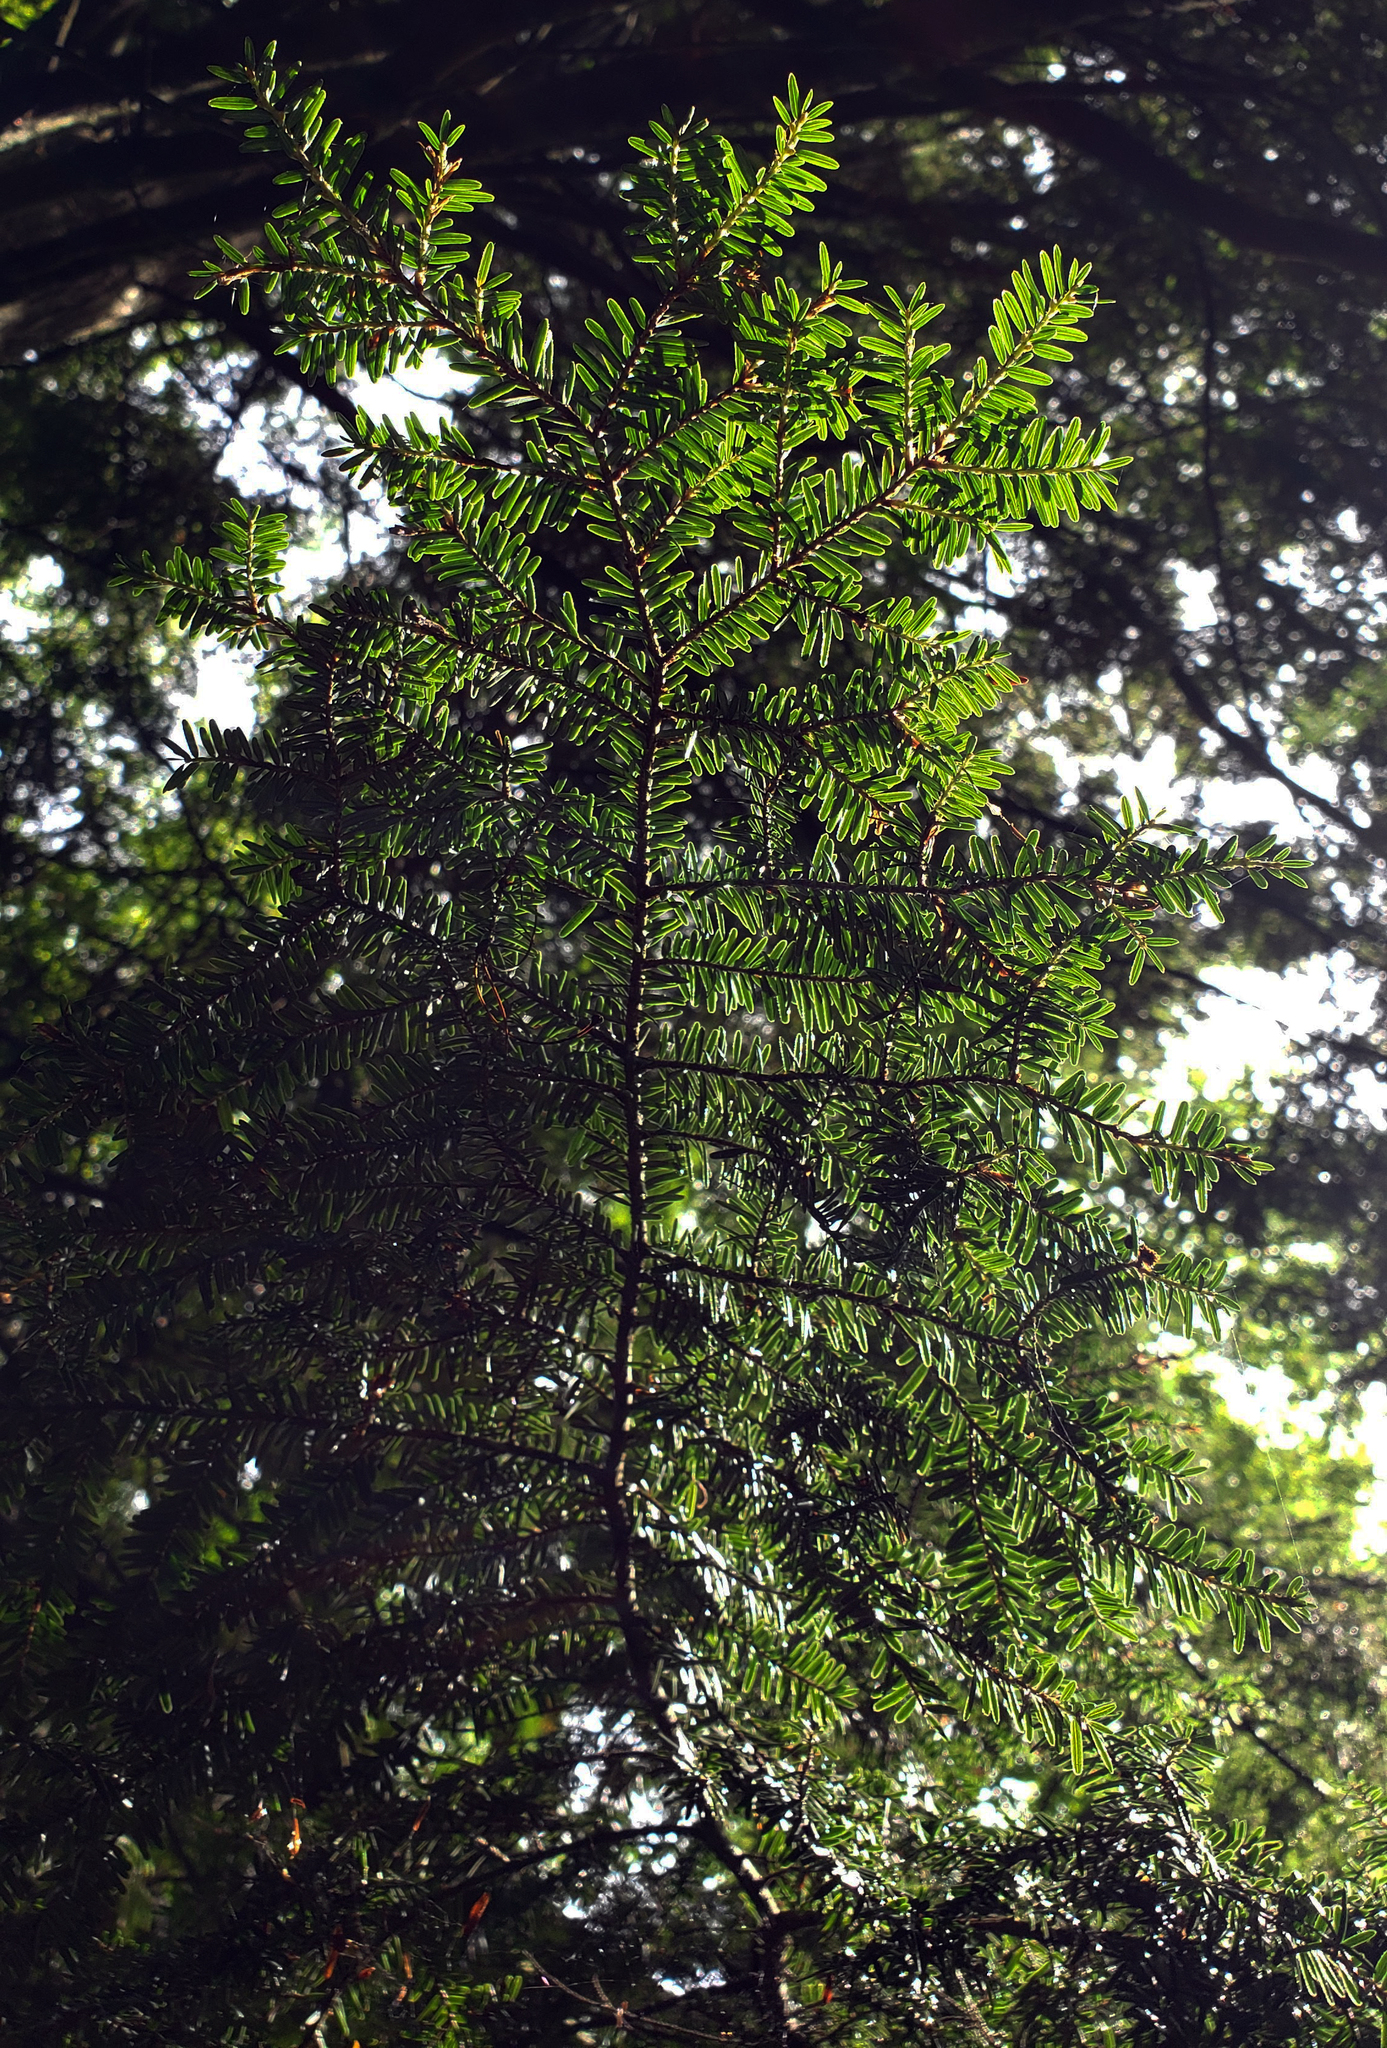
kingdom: Plantae
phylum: Tracheophyta
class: Pinopsida
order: Pinales
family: Pinaceae
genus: Tsuga
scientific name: Tsuga canadensis
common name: Eastern hemlock
